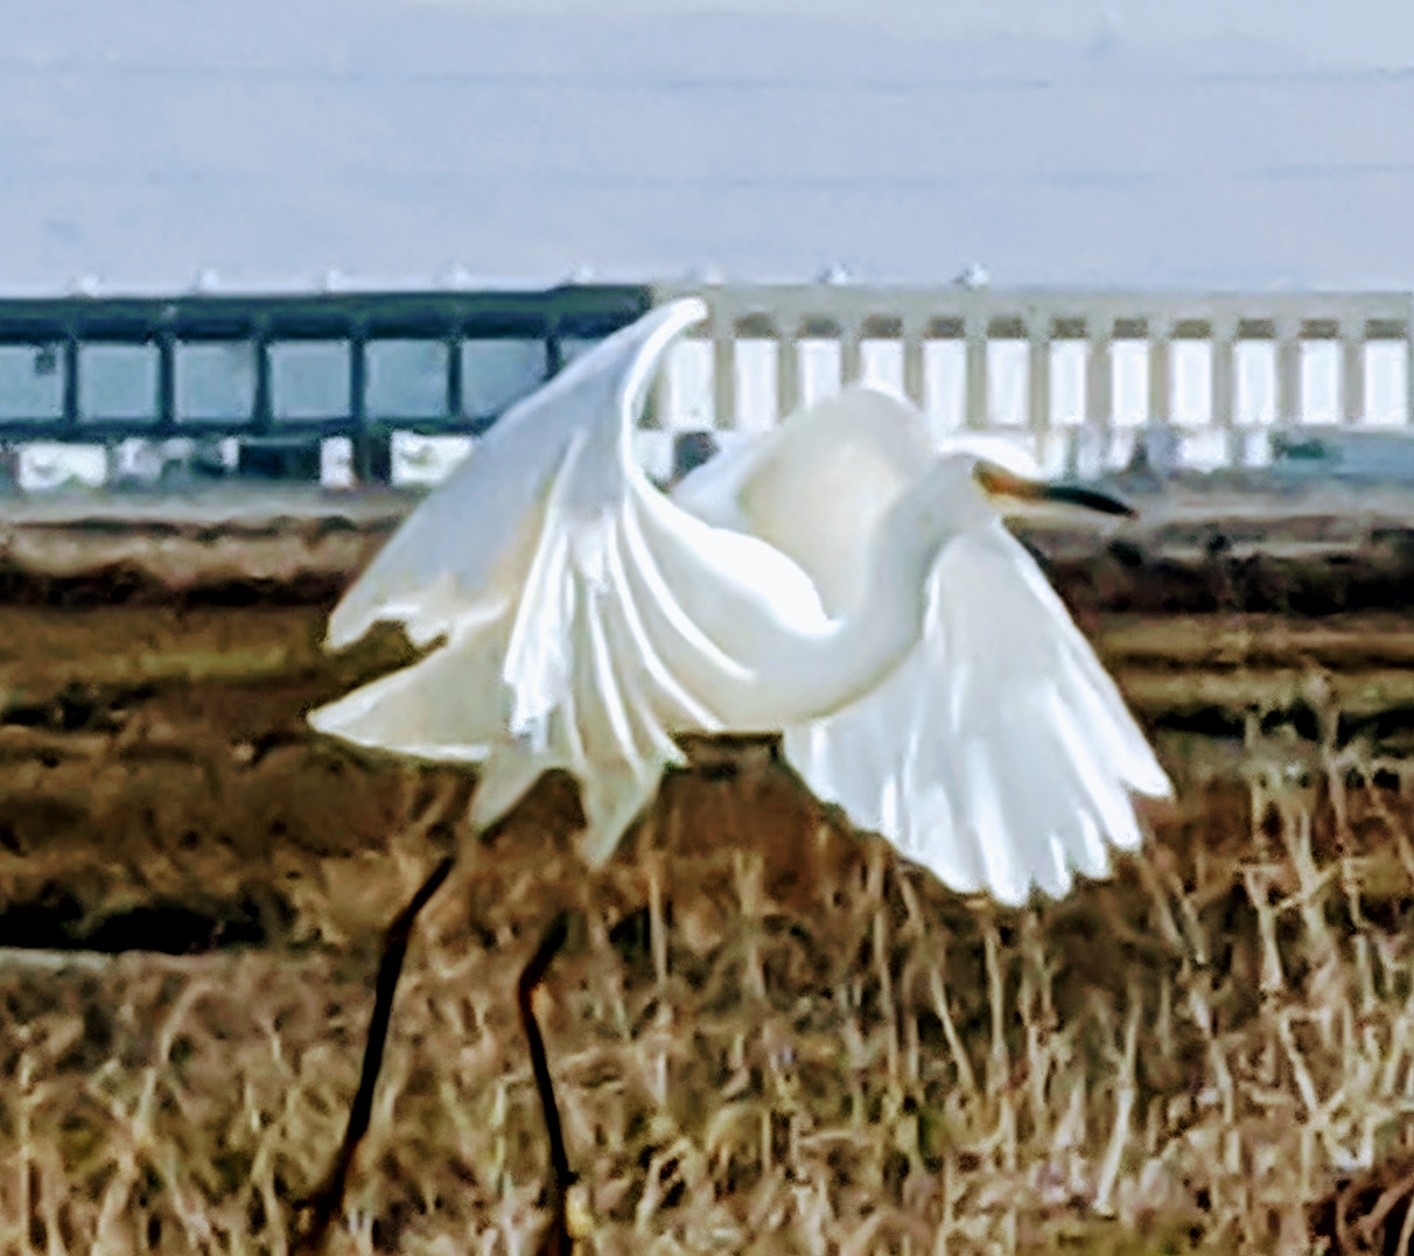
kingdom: Animalia
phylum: Chordata
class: Aves
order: Pelecaniformes
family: Ardeidae
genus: Egretta
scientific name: Egretta thula
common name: Snowy egret
